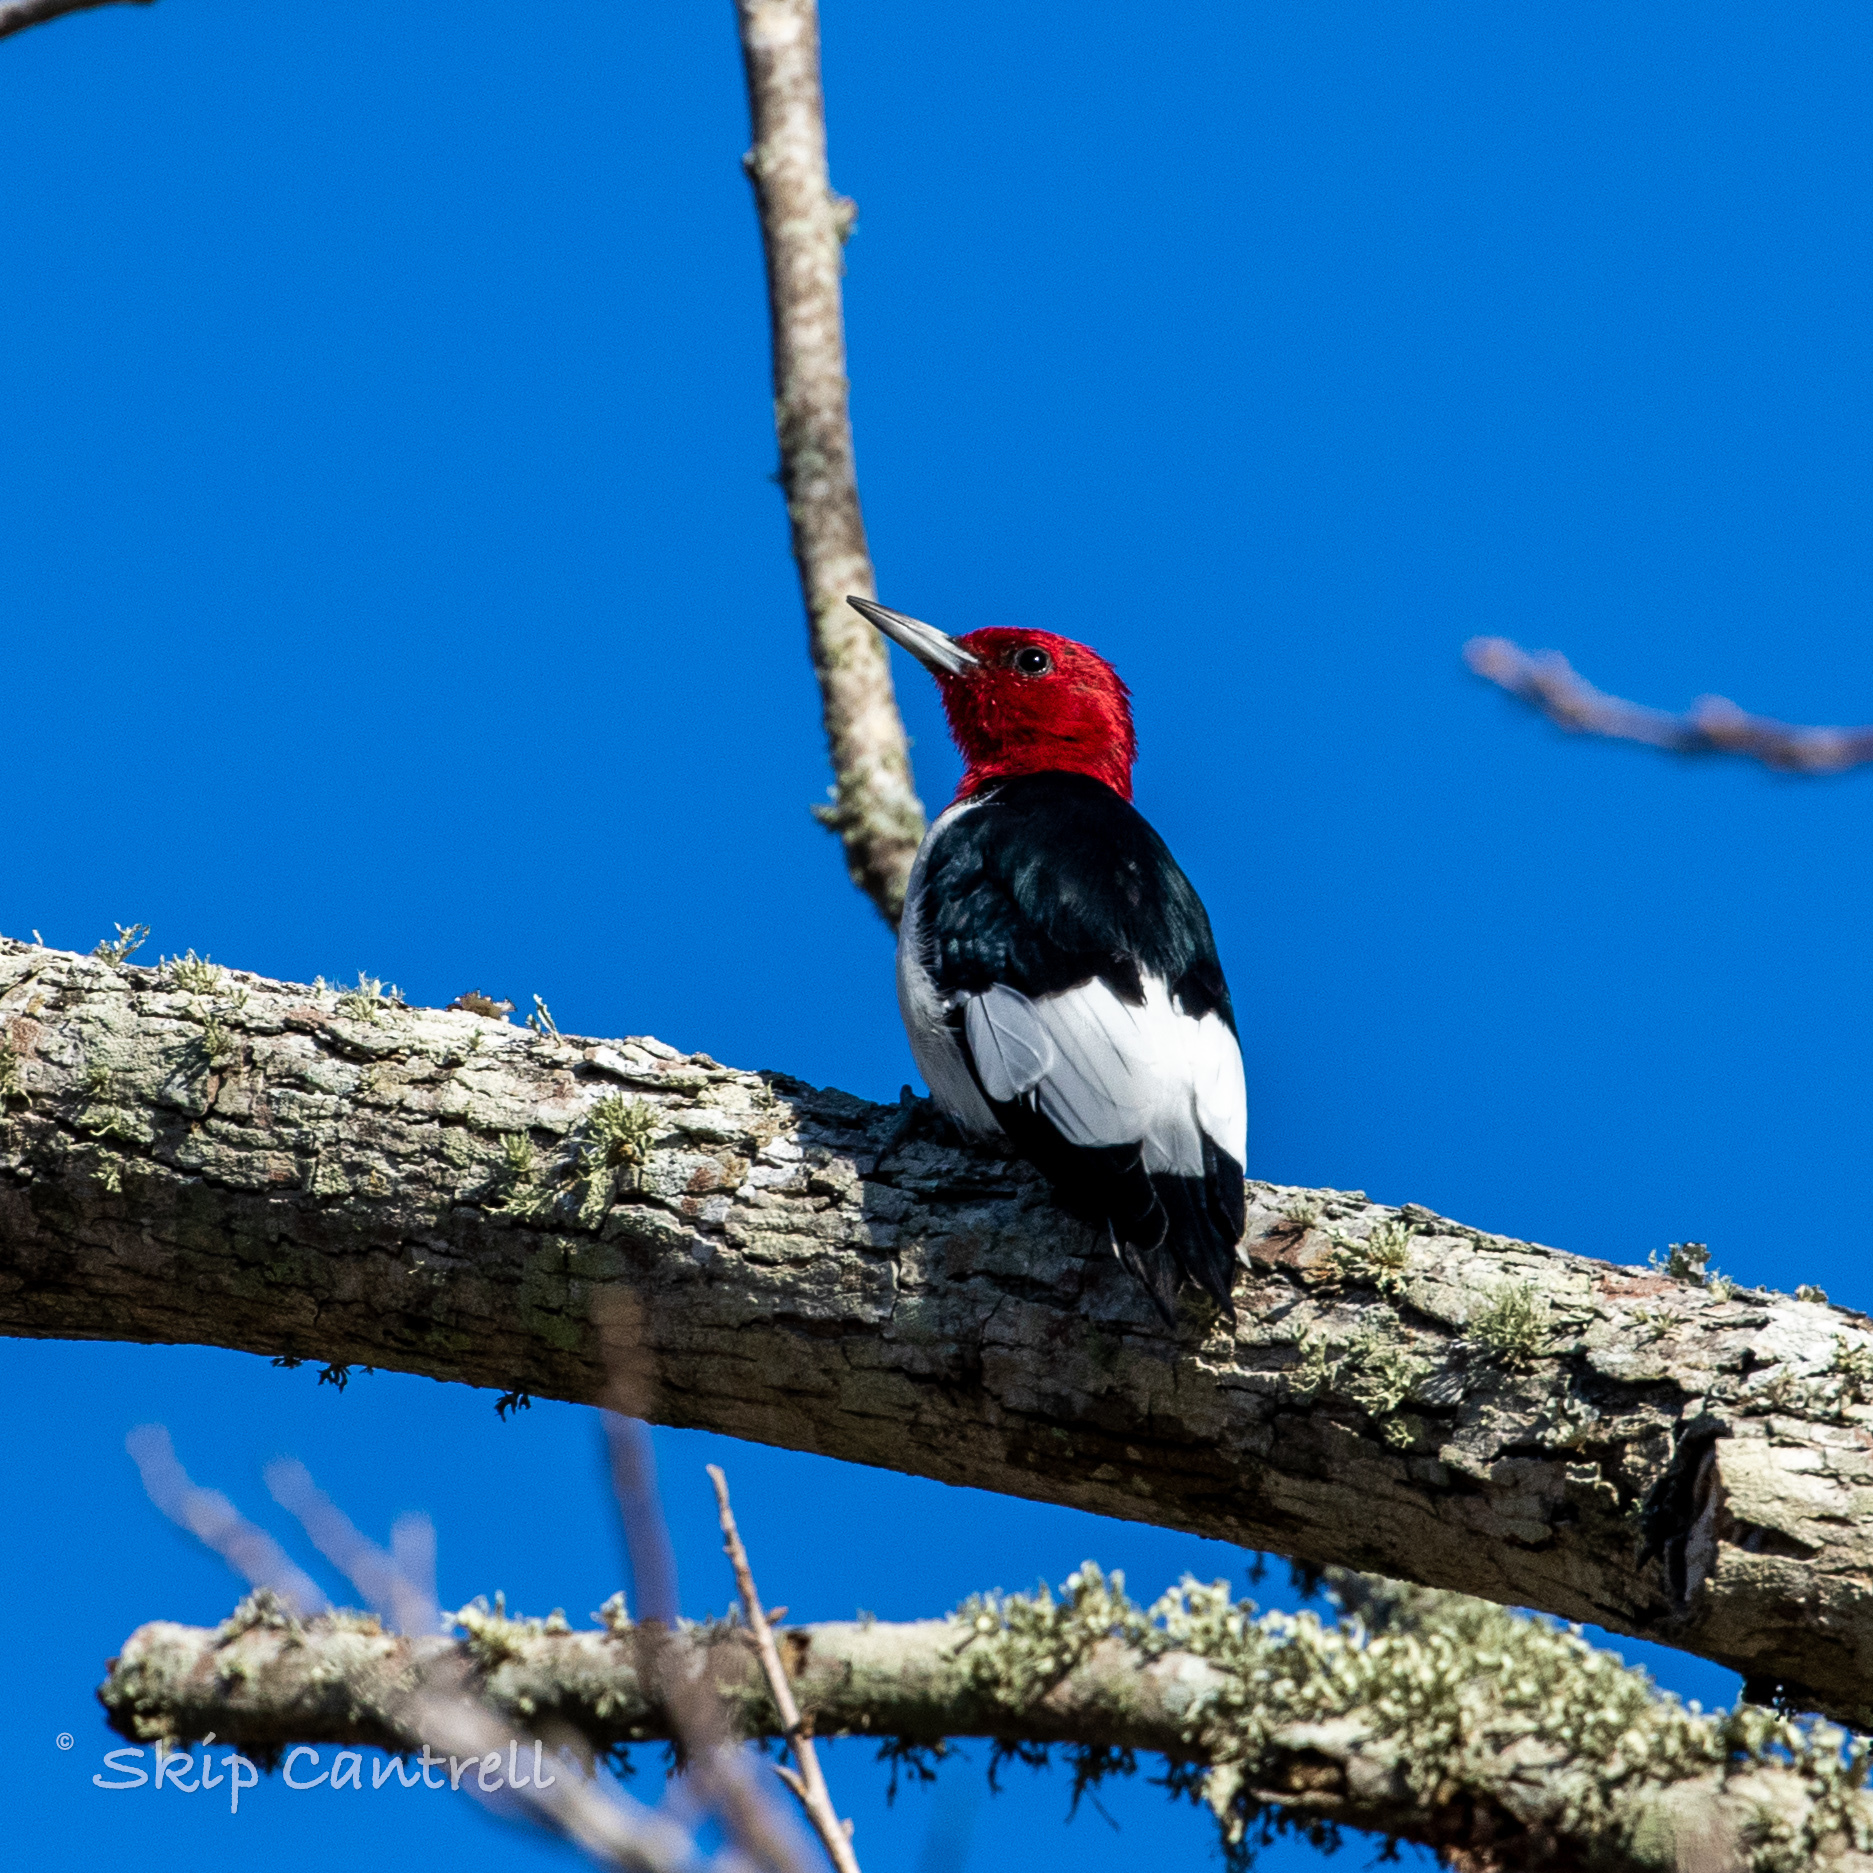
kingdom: Animalia
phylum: Chordata
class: Aves
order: Piciformes
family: Picidae
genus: Melanerpes
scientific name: Melanerpes erythrocephalus
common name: Red-headed woodpecker
